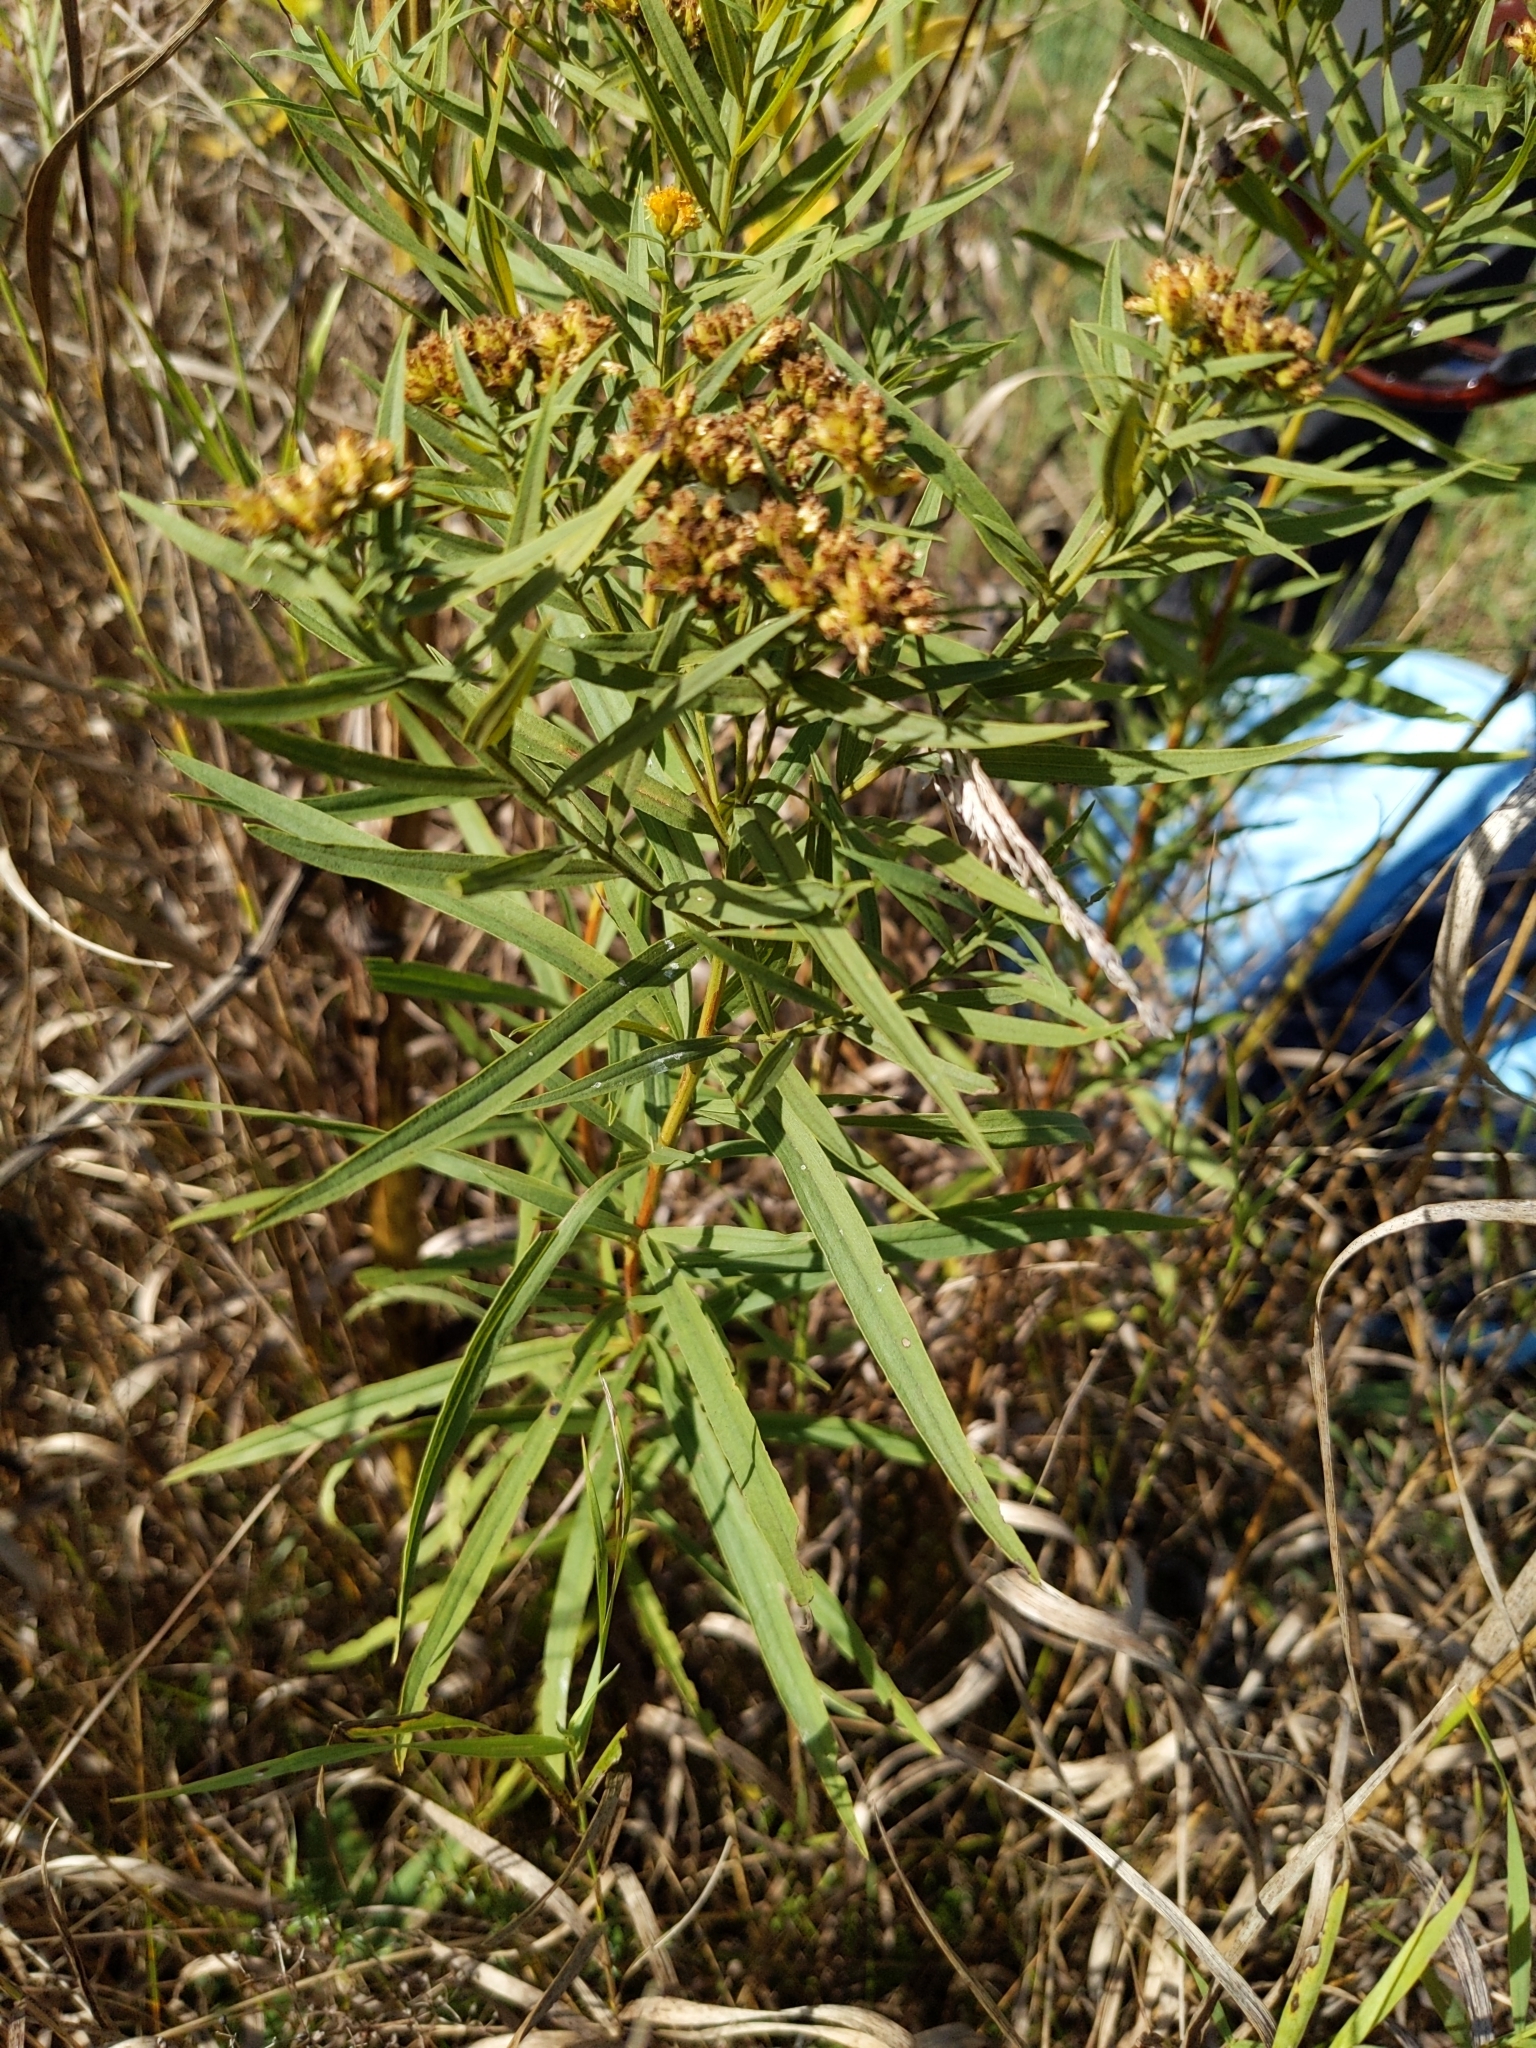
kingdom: Plantae
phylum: Tracheophyta
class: Magnoliopsida
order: Asterales
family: Asteraceae
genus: Euthamia
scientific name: Euthamia graminifolia
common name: Common goldentop
